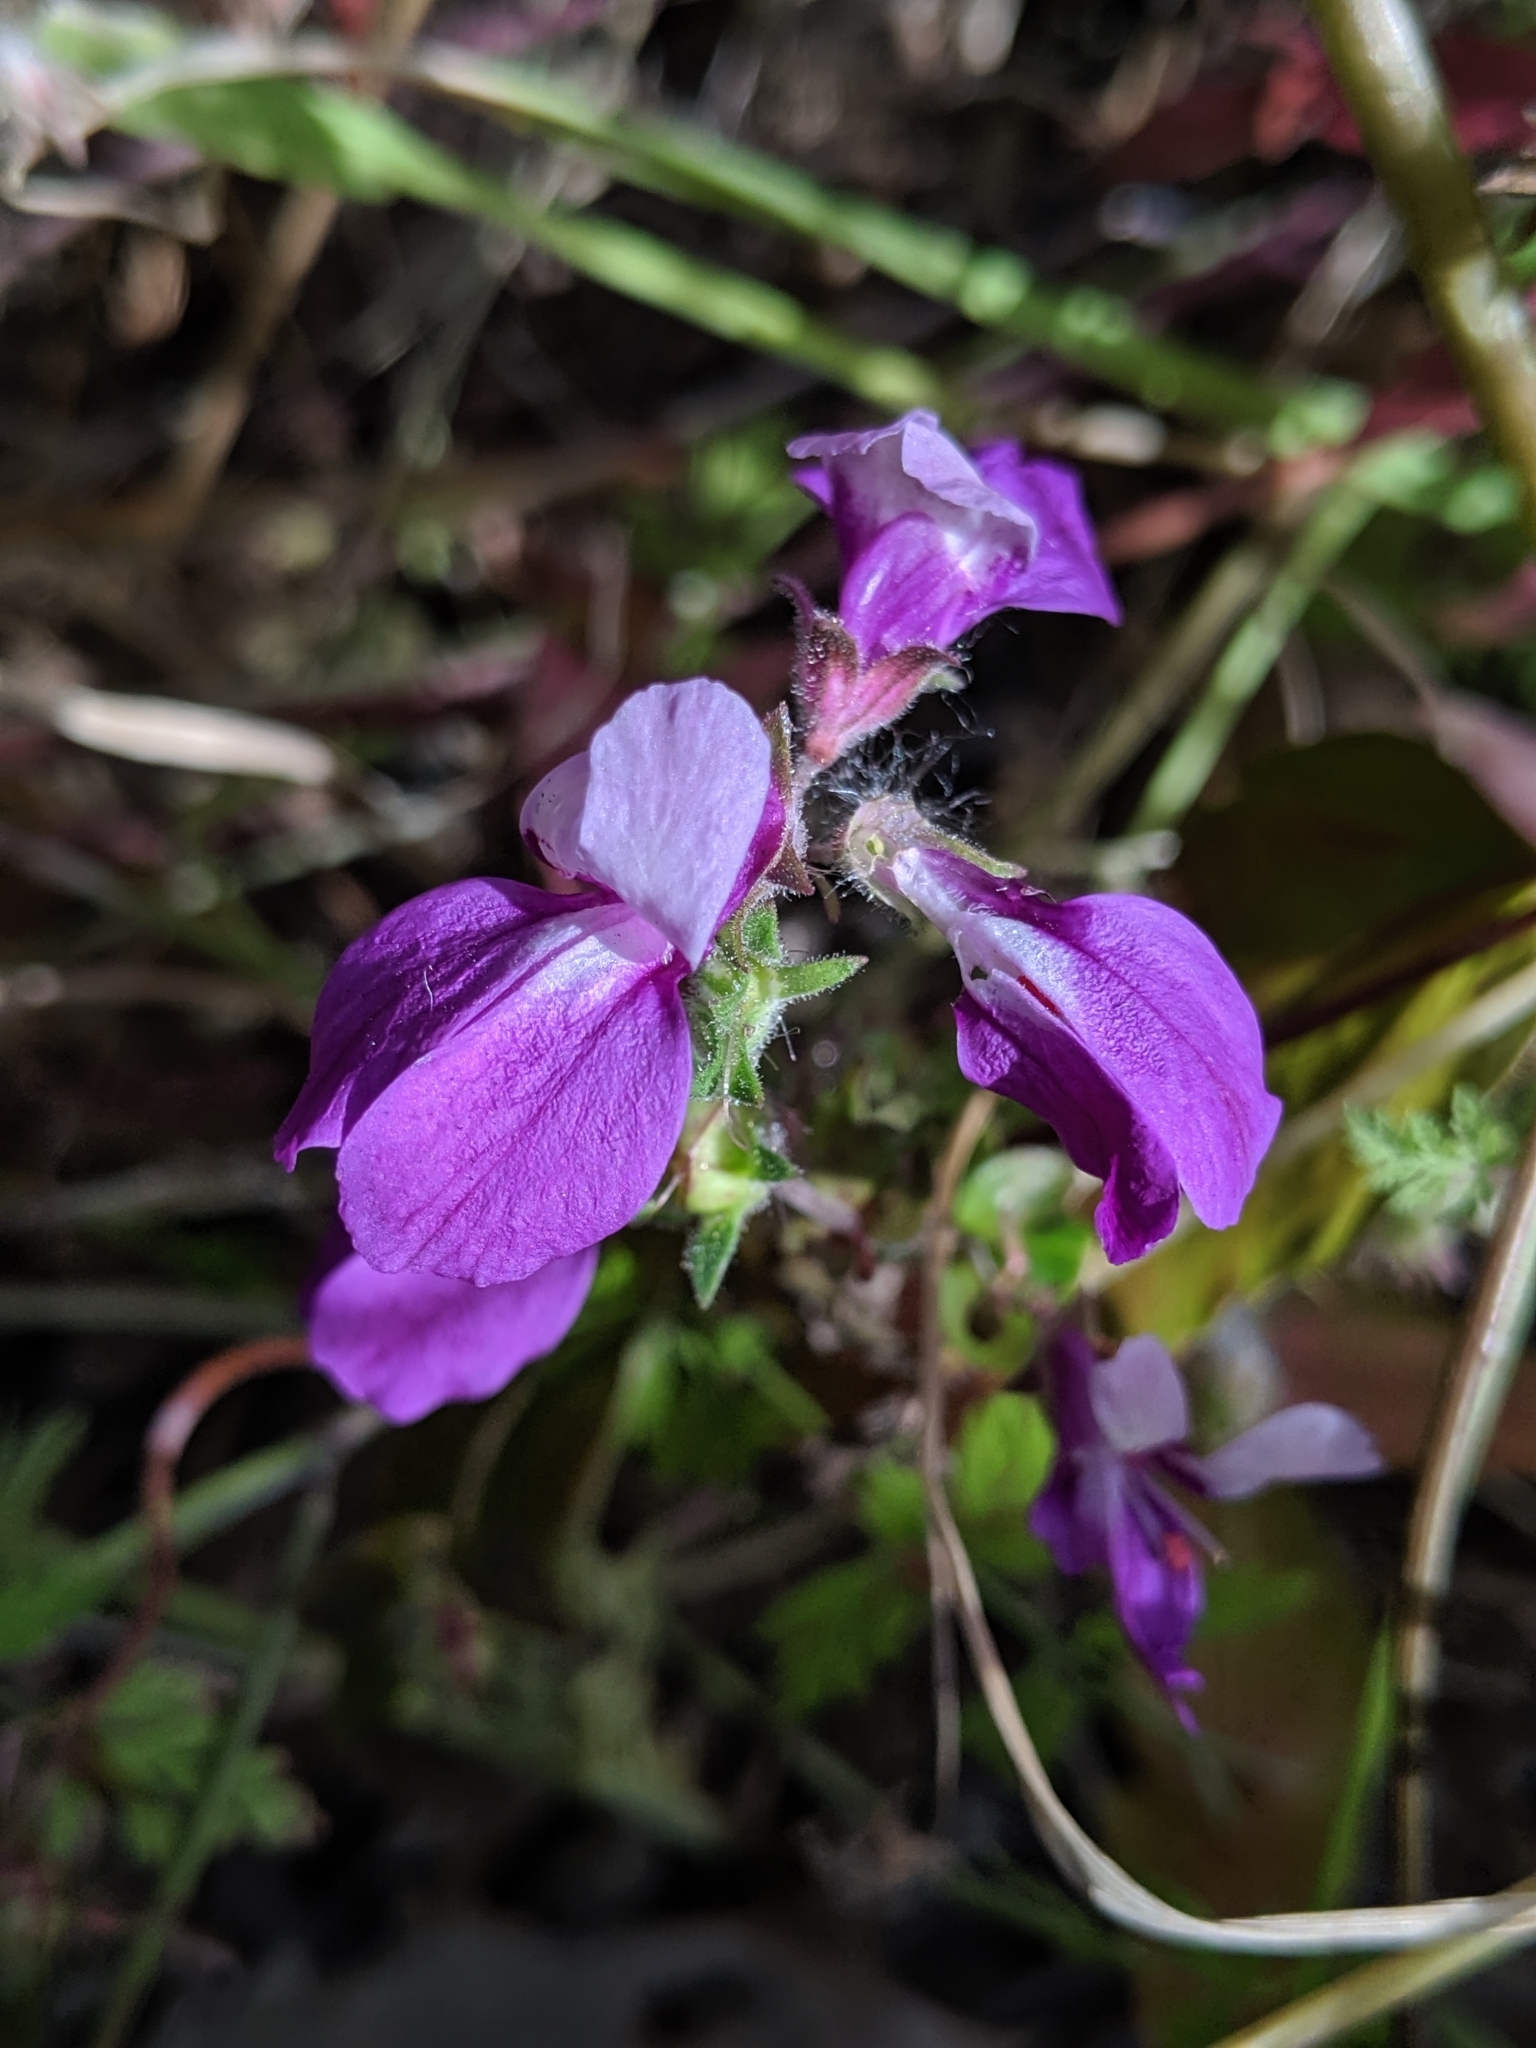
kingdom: Plantae
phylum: Tracheophyta
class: Magnoliopsida
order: Lamiales
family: Plantaginaceae
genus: Collinsia
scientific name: Collinsia heterophylla
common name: Chinese-houses
